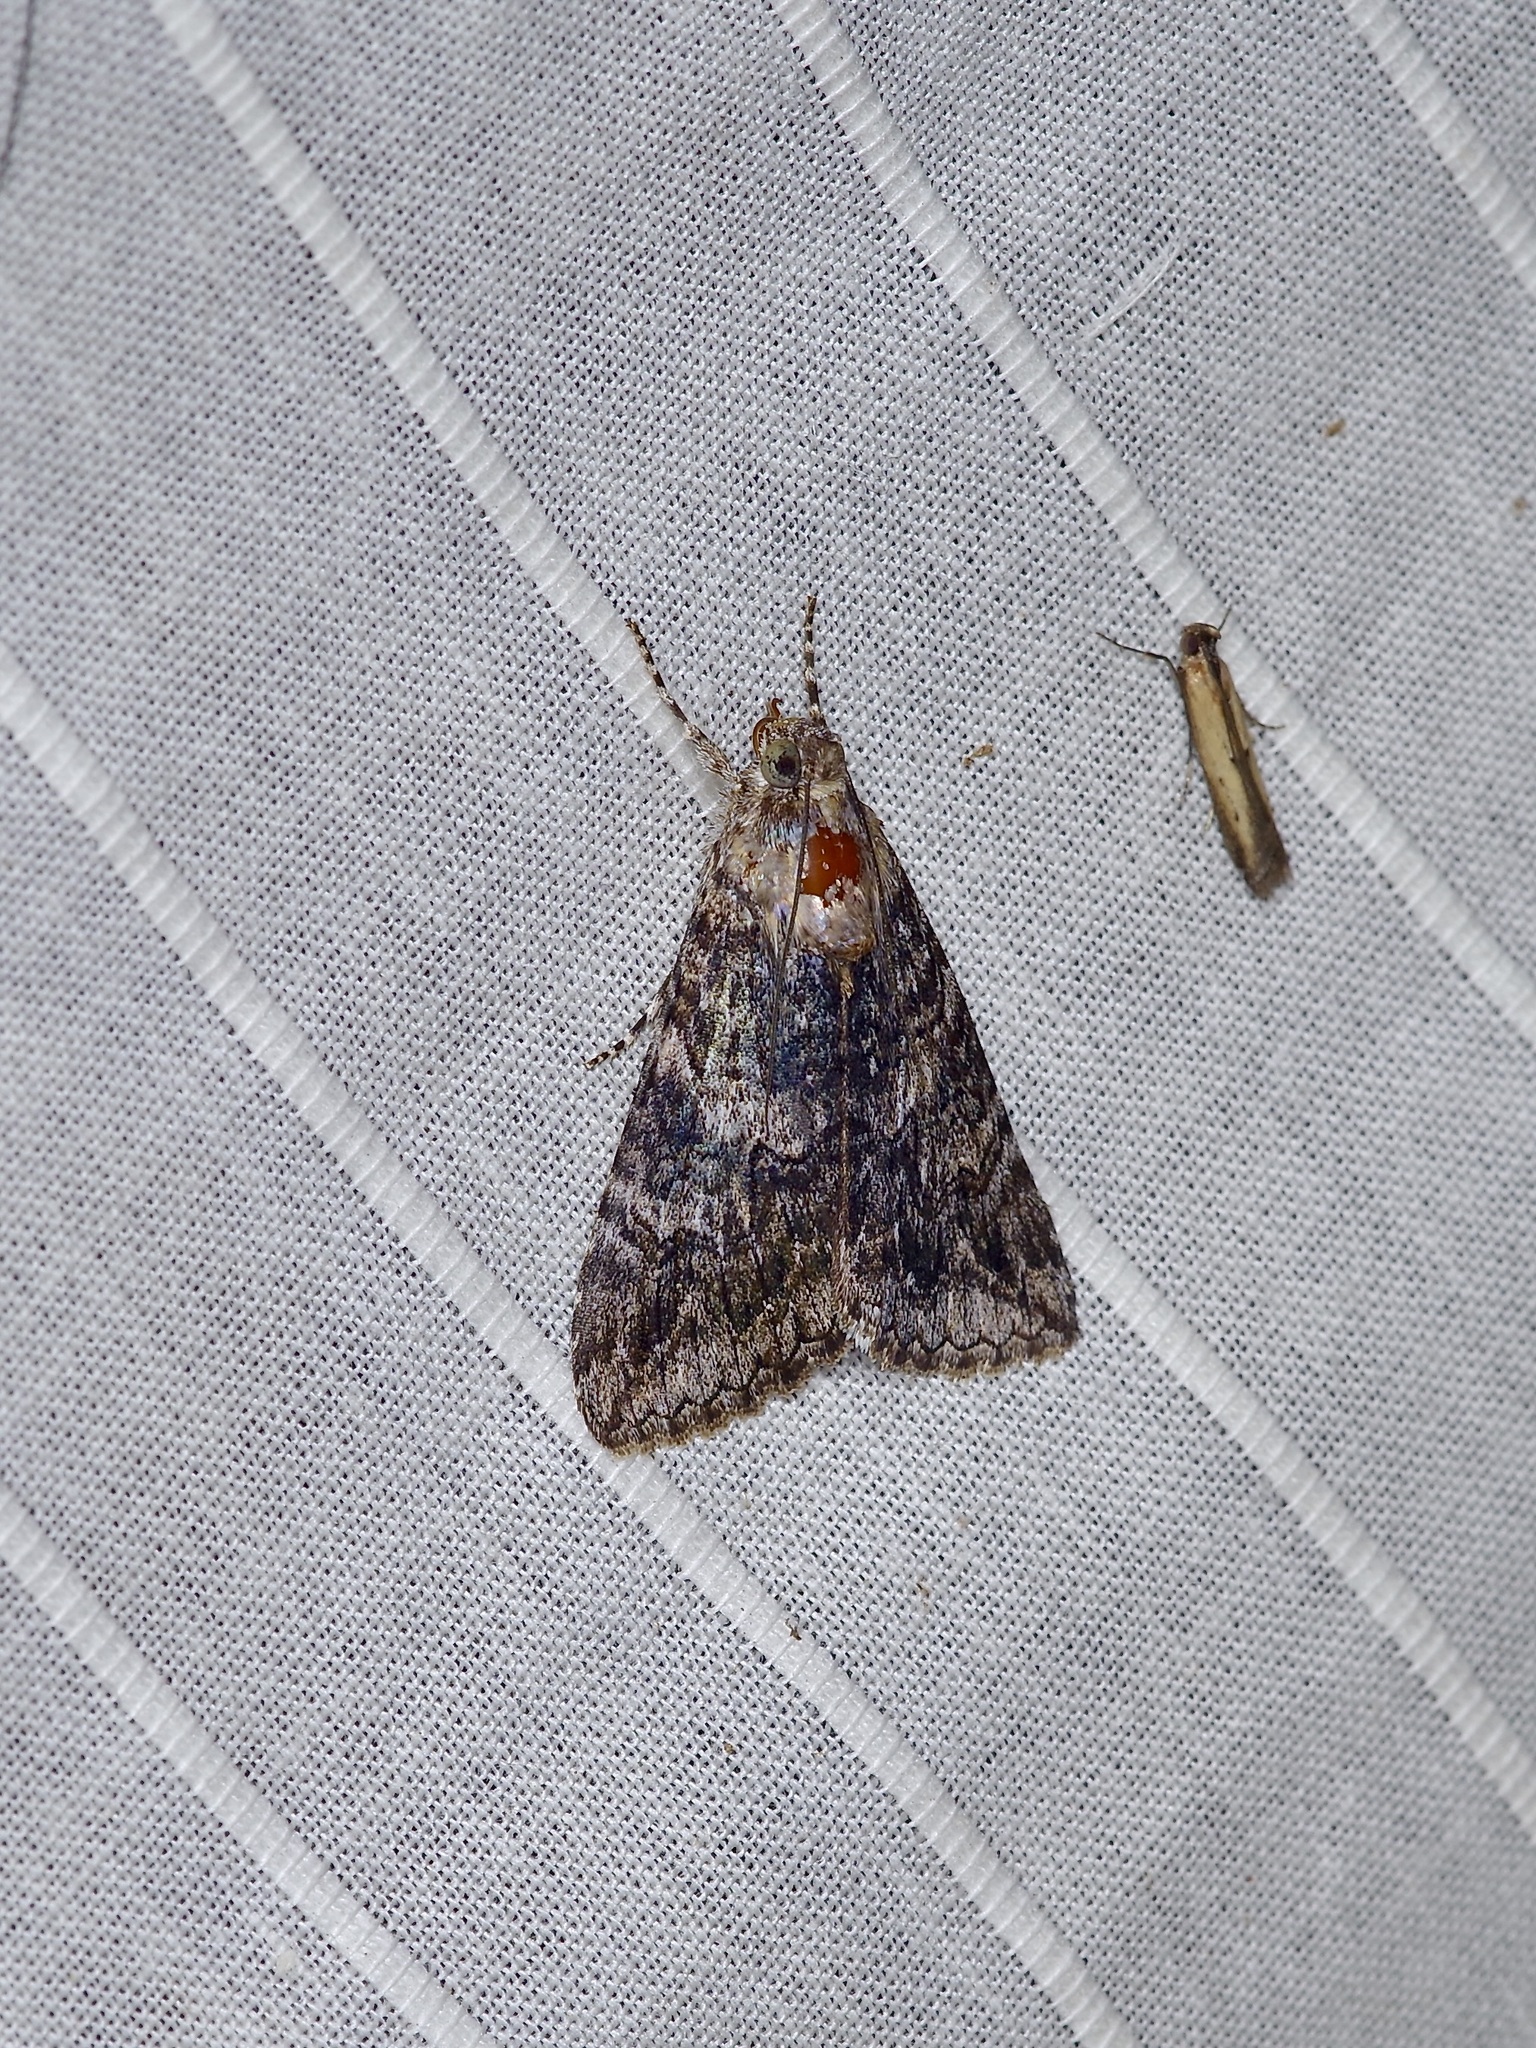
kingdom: Animalia
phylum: Arthropoda
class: Insecta
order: Lepidoptera
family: Erebidae
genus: Melipotis
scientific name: Melipotis jucunda
